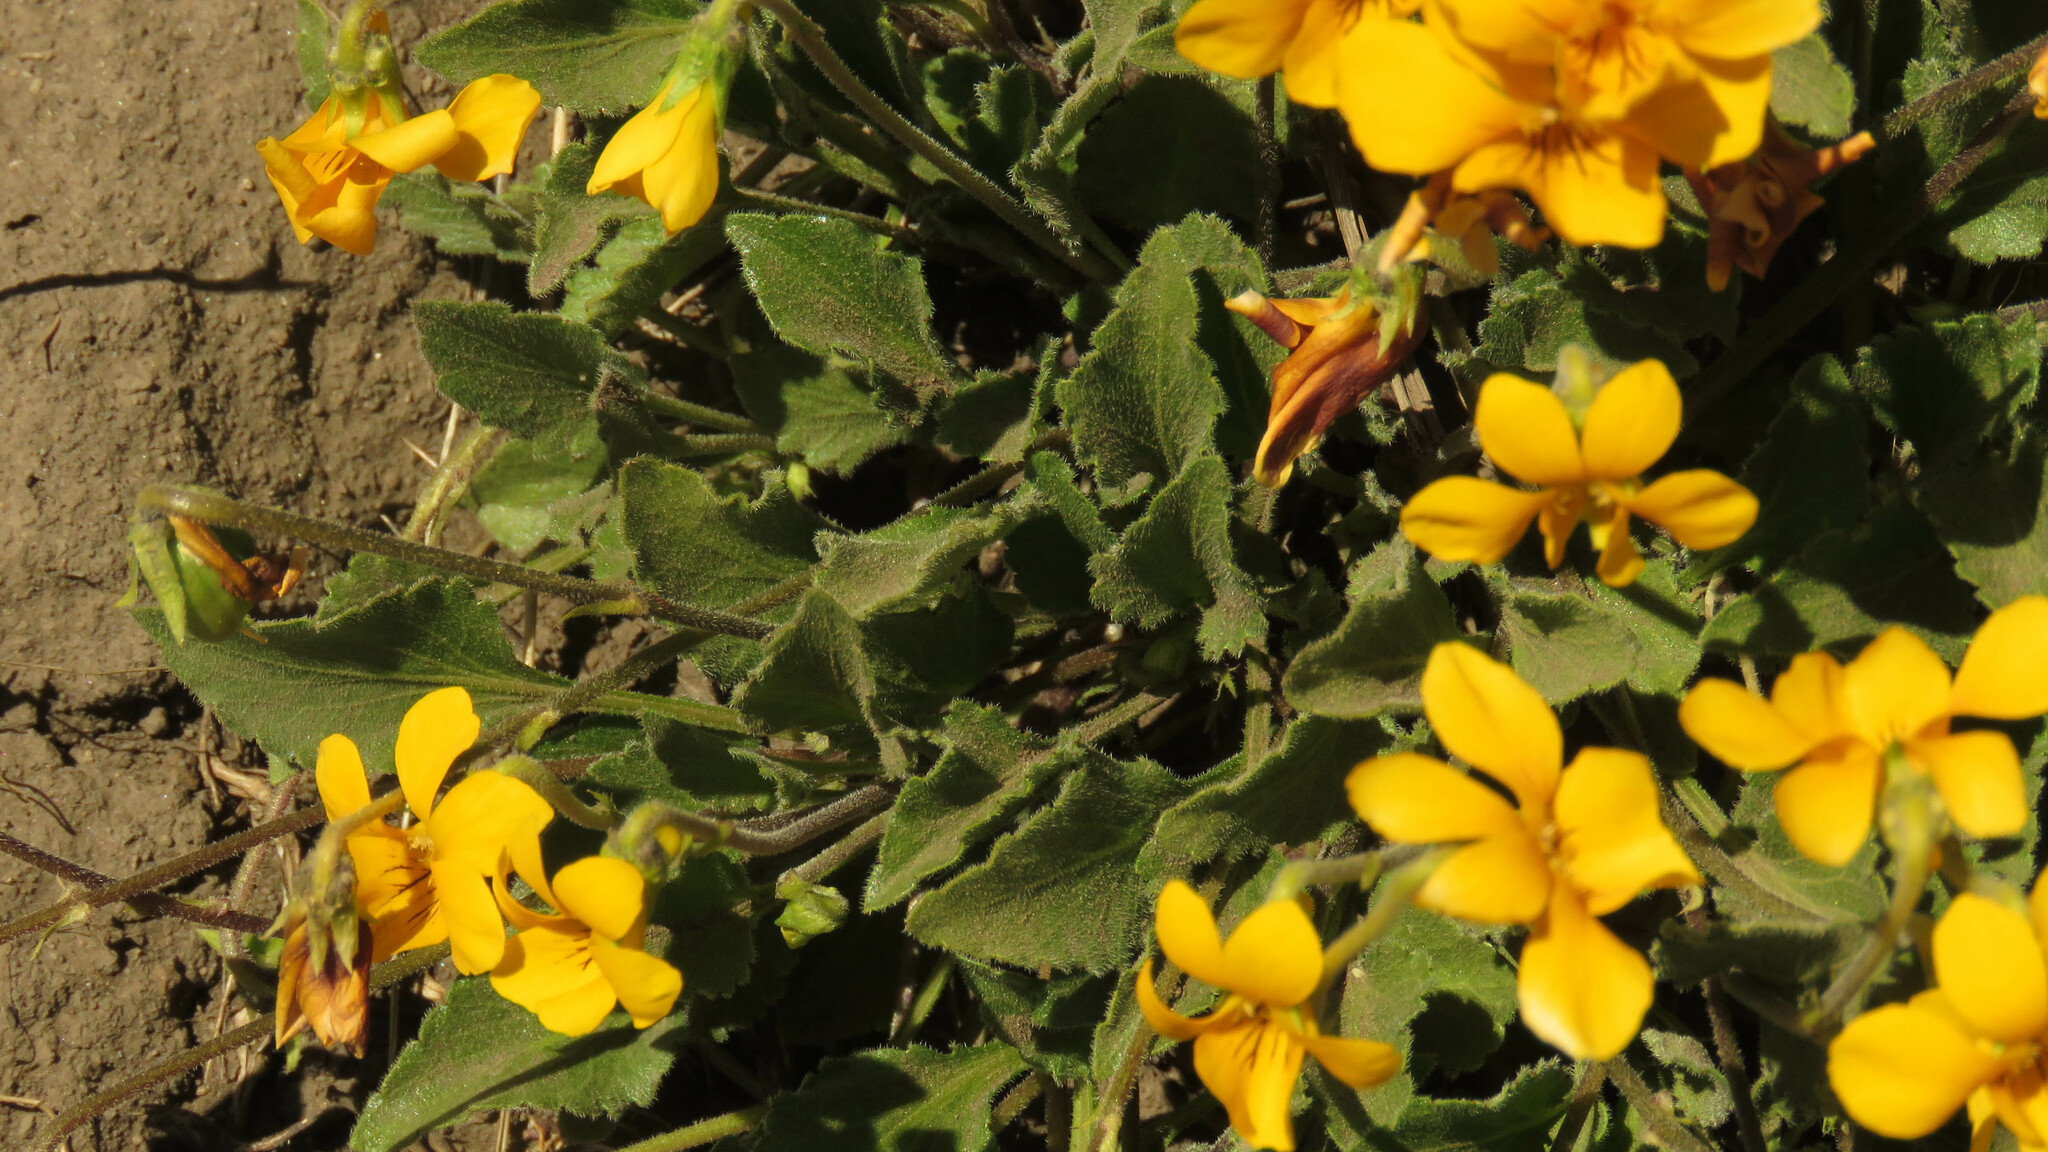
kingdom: Plantae
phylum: Tracheophyta
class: Magnoliopsida
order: Malpighiales
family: Violaceae
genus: Viola
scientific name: Viola maculata
